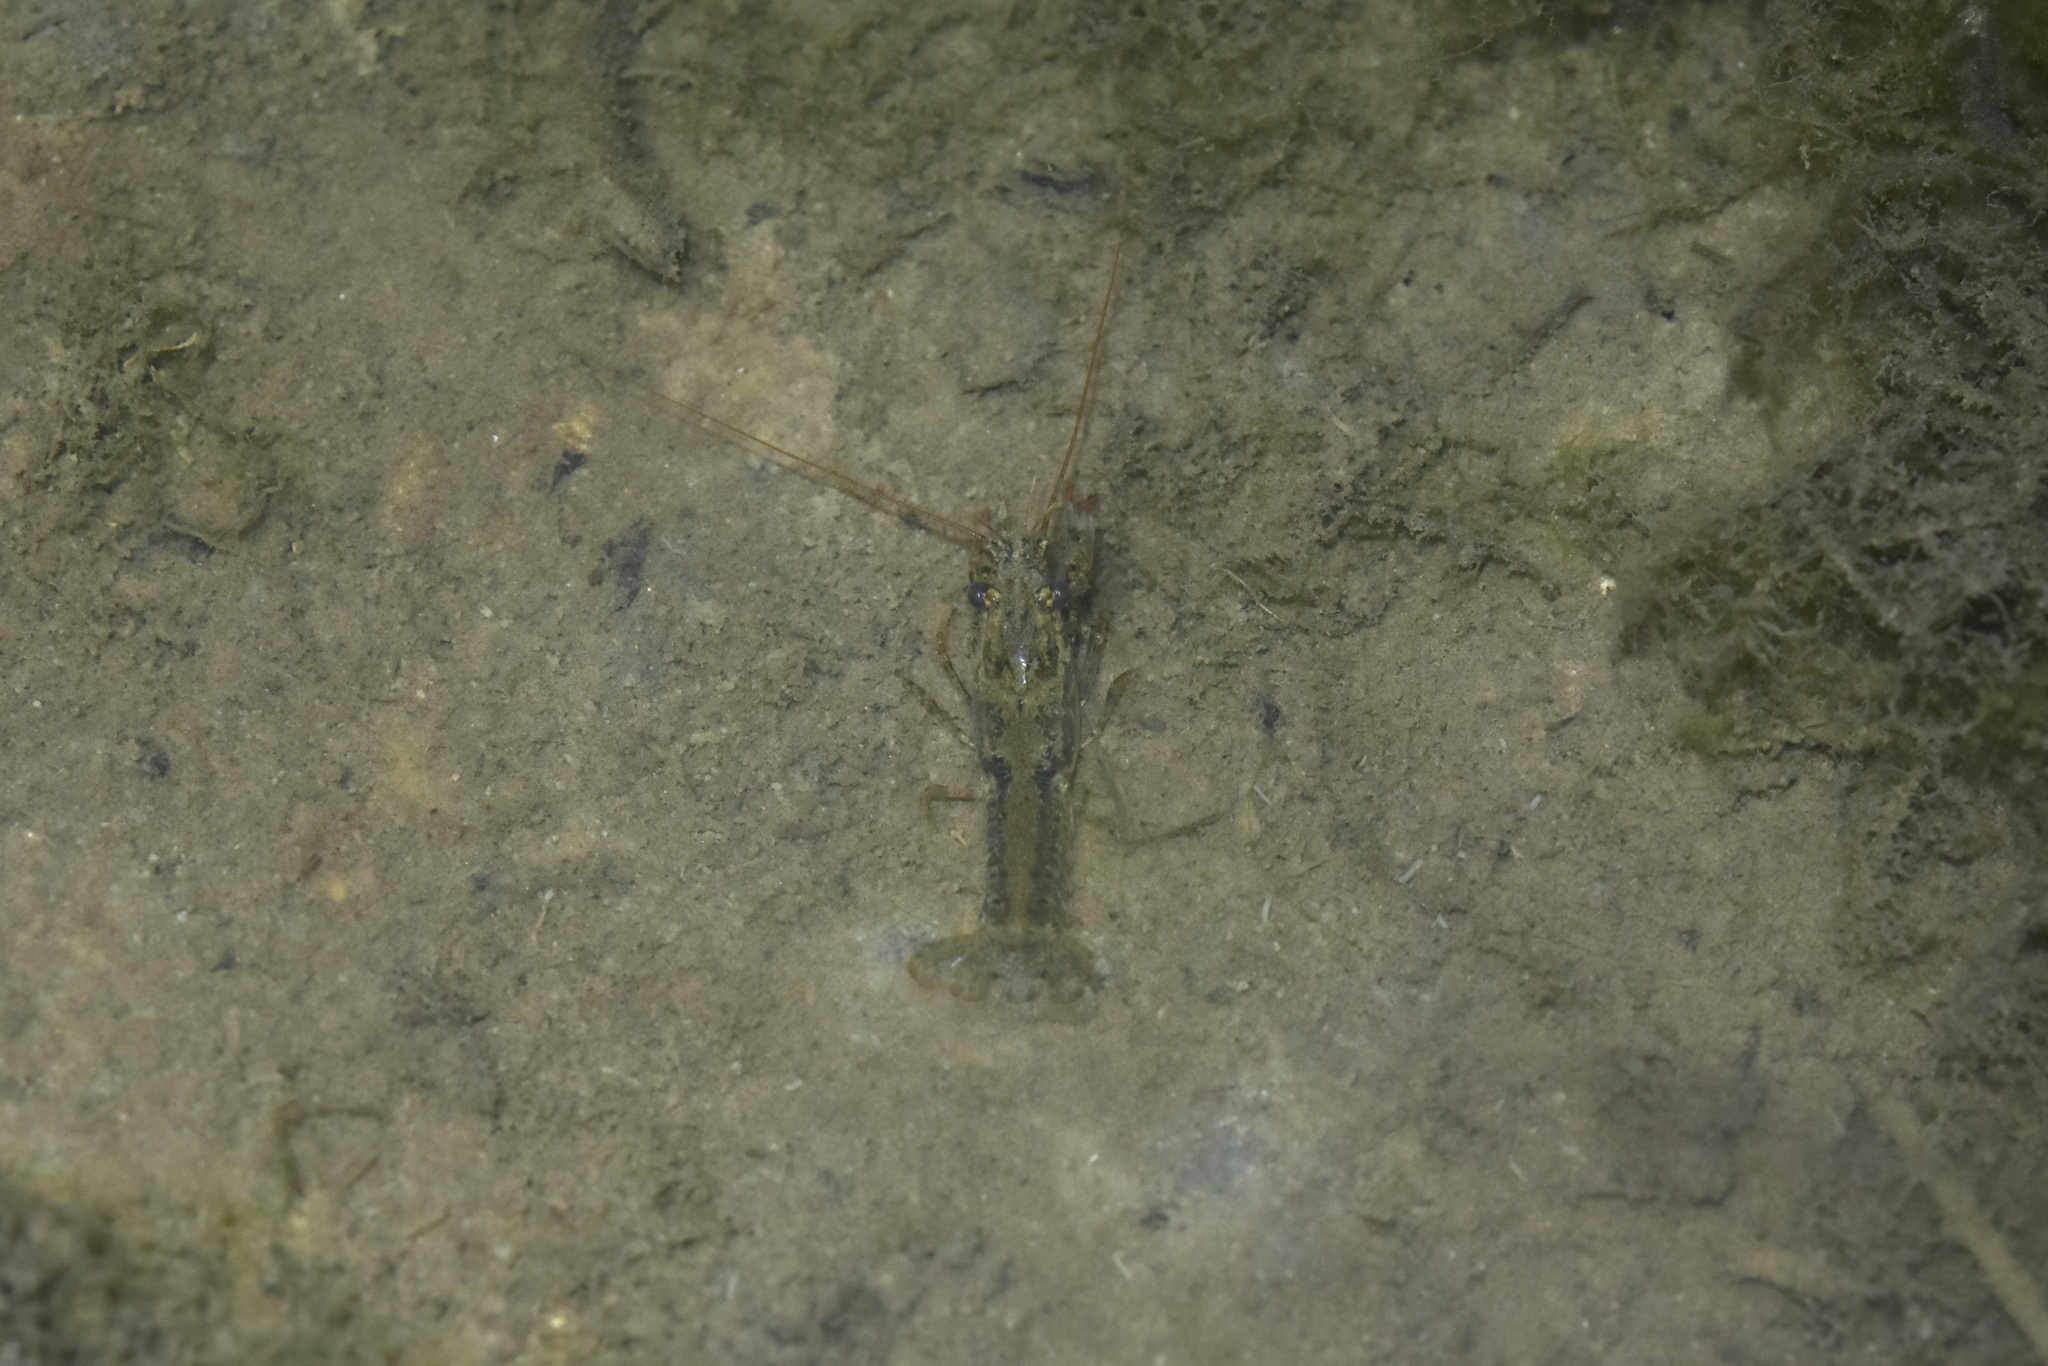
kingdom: Animalia
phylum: Arthropoda
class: Malacostraca
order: Decapoda
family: Cambaridae
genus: Procambarus
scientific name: Procambarus simulans
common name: Southern plains crayfish
